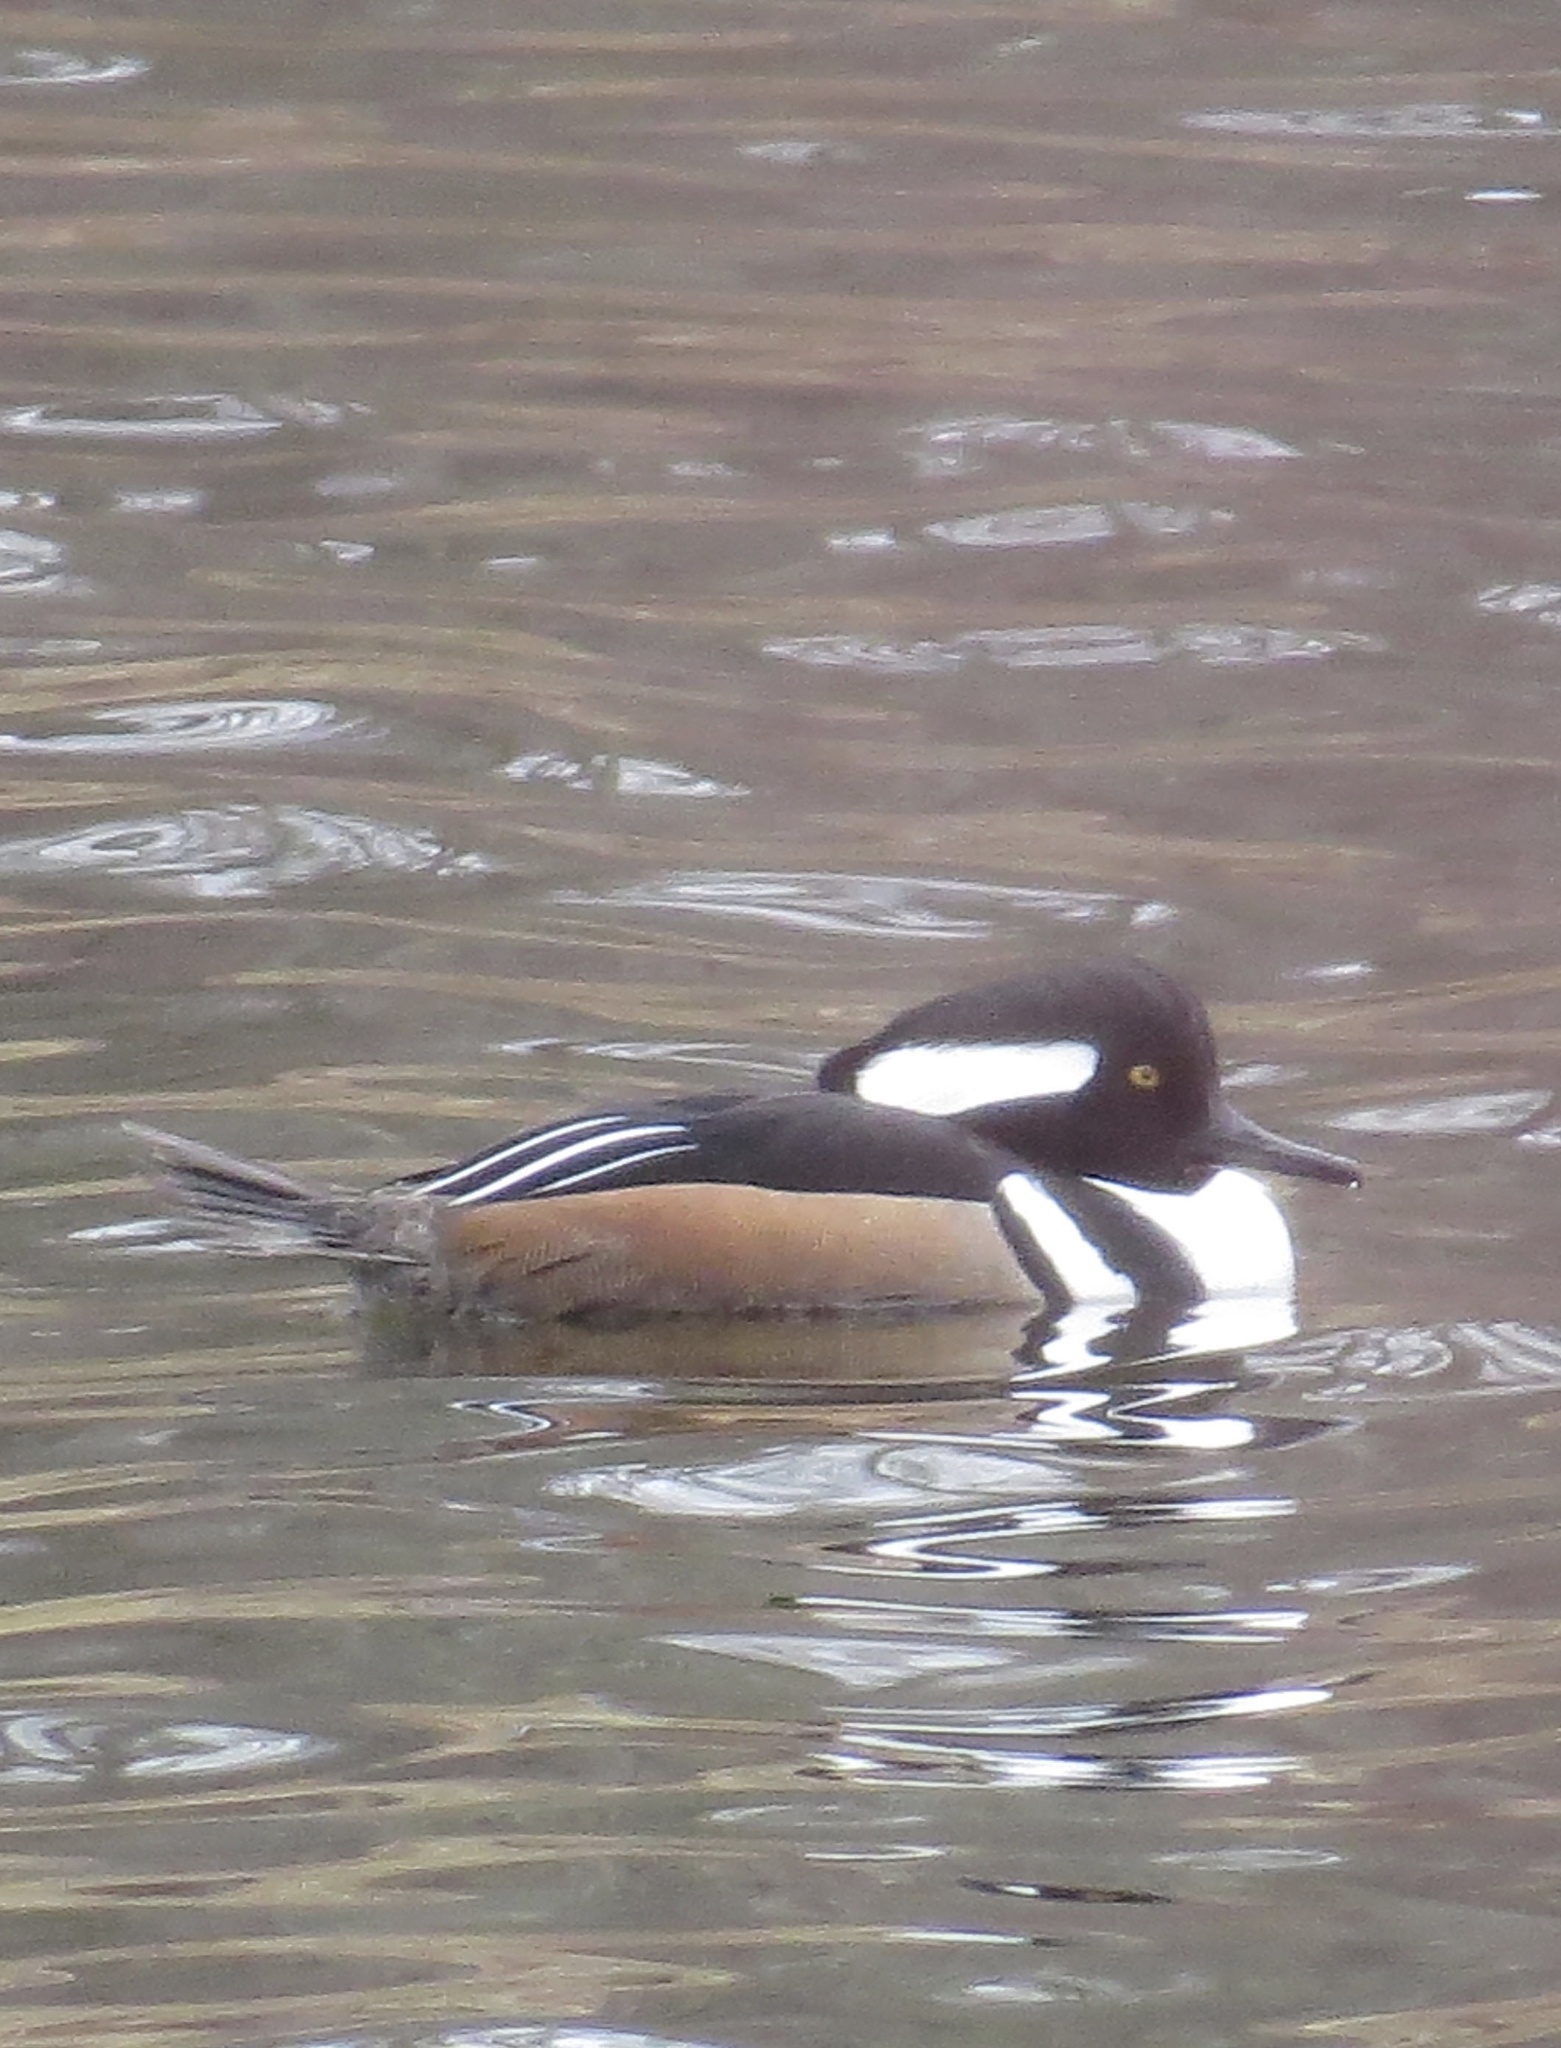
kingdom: Animalia
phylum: Chordata
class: Aves
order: Anseriformes
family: Anatidae
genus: Lophodytes
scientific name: Lophodytes cucullatus
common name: Hooded merganser
